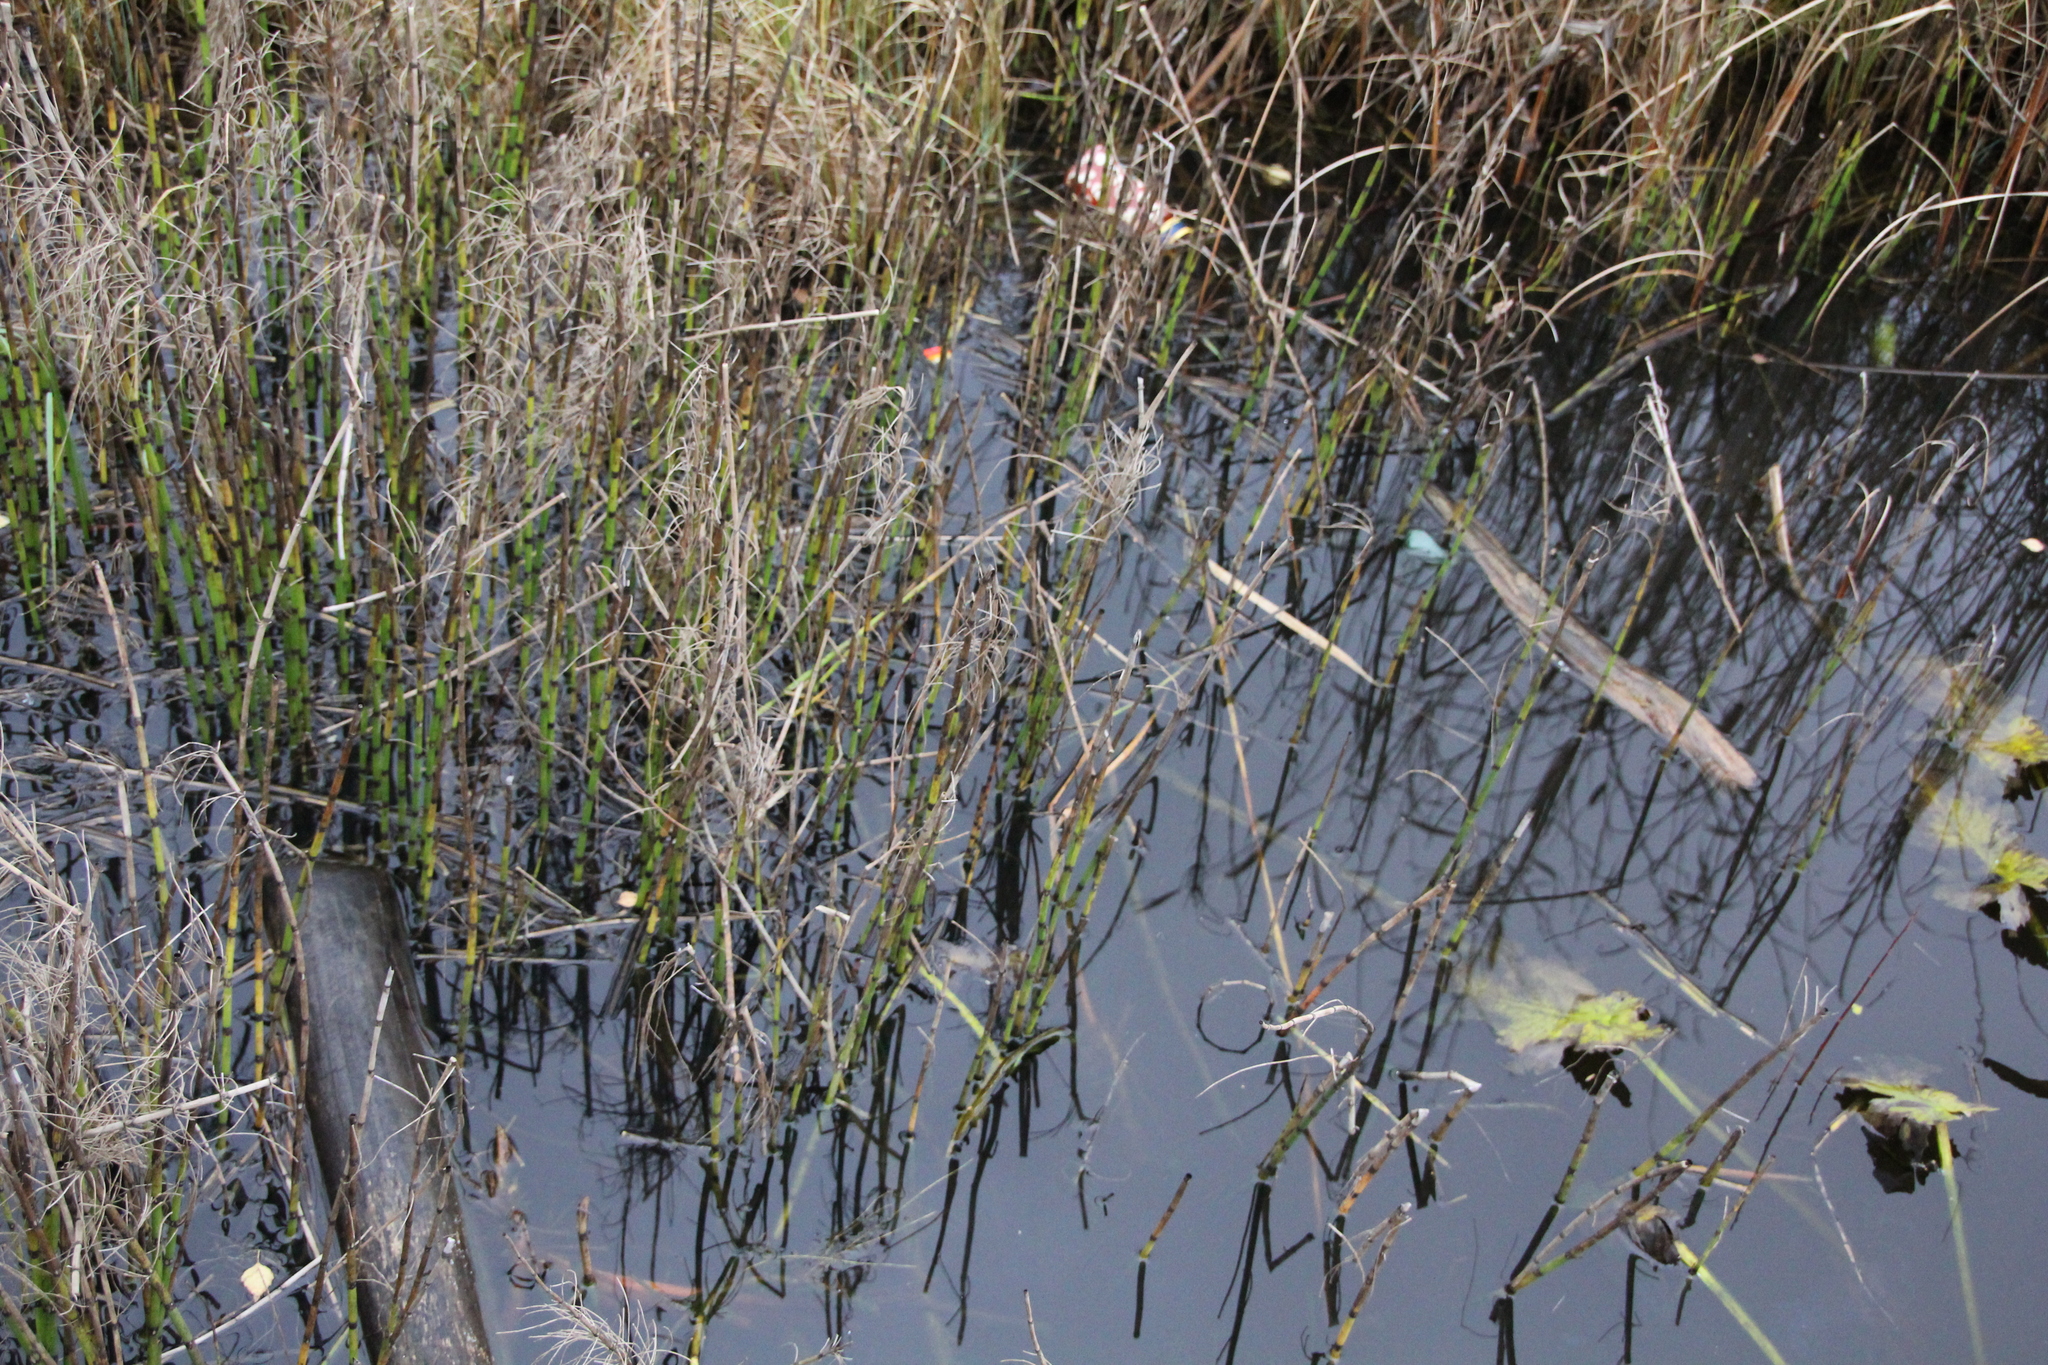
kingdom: Plantae
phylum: Tracheophyta
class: Polypodiopsida
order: Equisetales
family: Equisetaceae
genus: Equisetum
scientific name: Equisetum fluviatile
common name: Water horsetail
